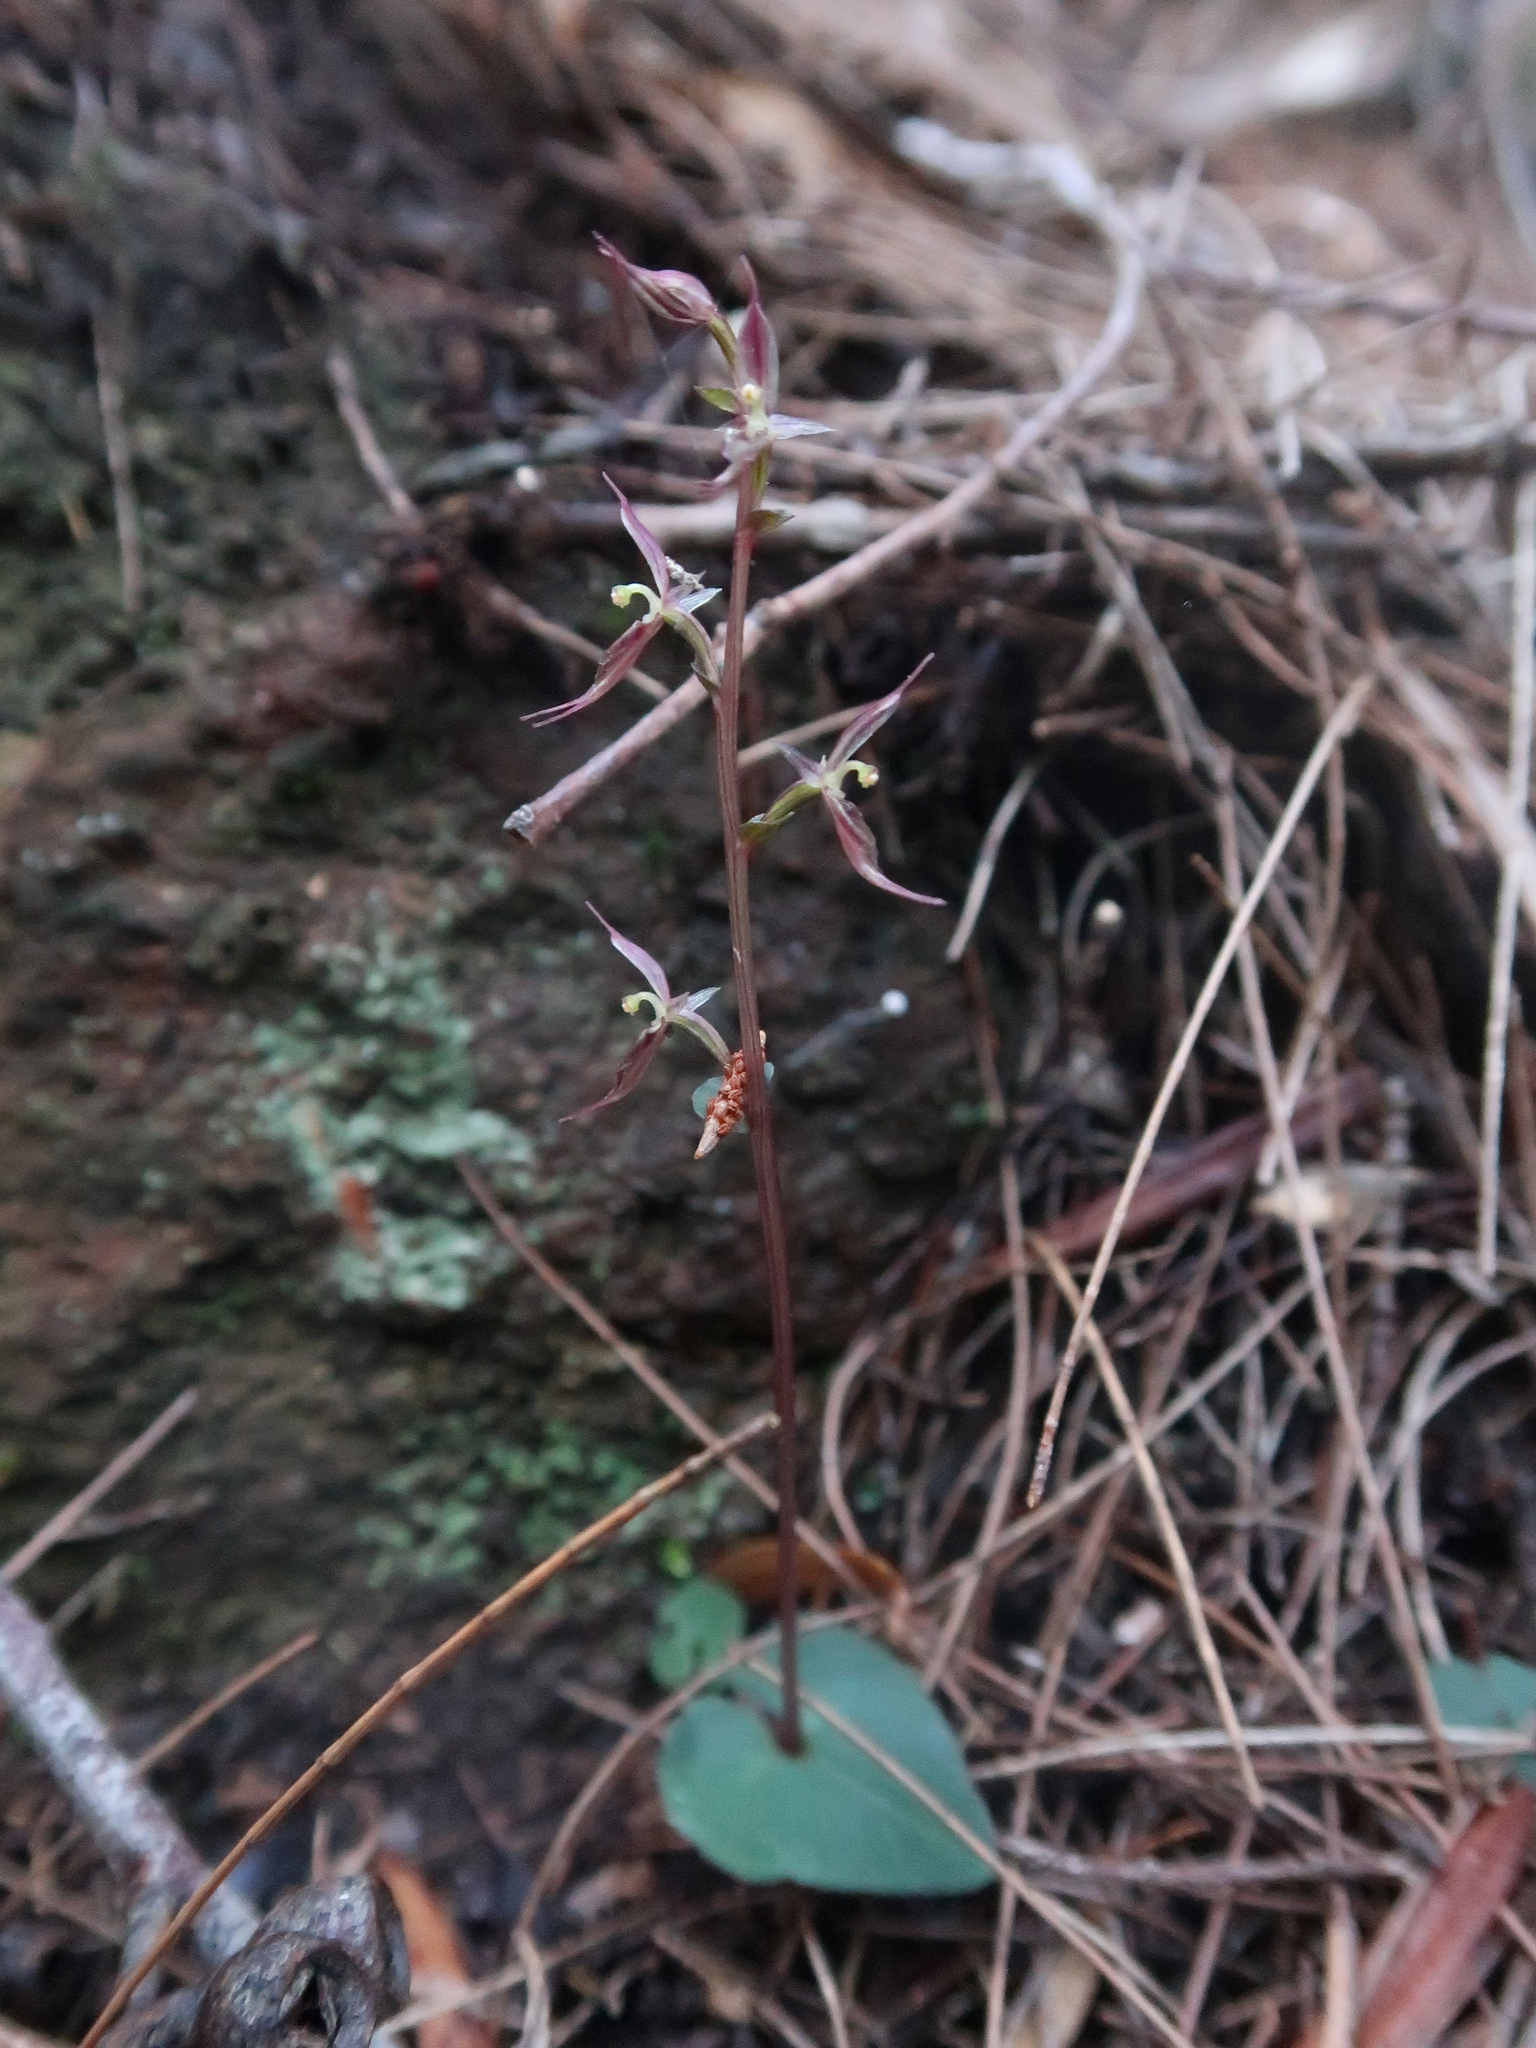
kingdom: Plantae
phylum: Tracheophyta
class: Liliopsida
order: Asparagales
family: Orchidaceae
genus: Acianthus
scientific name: Acianthus pusillus
